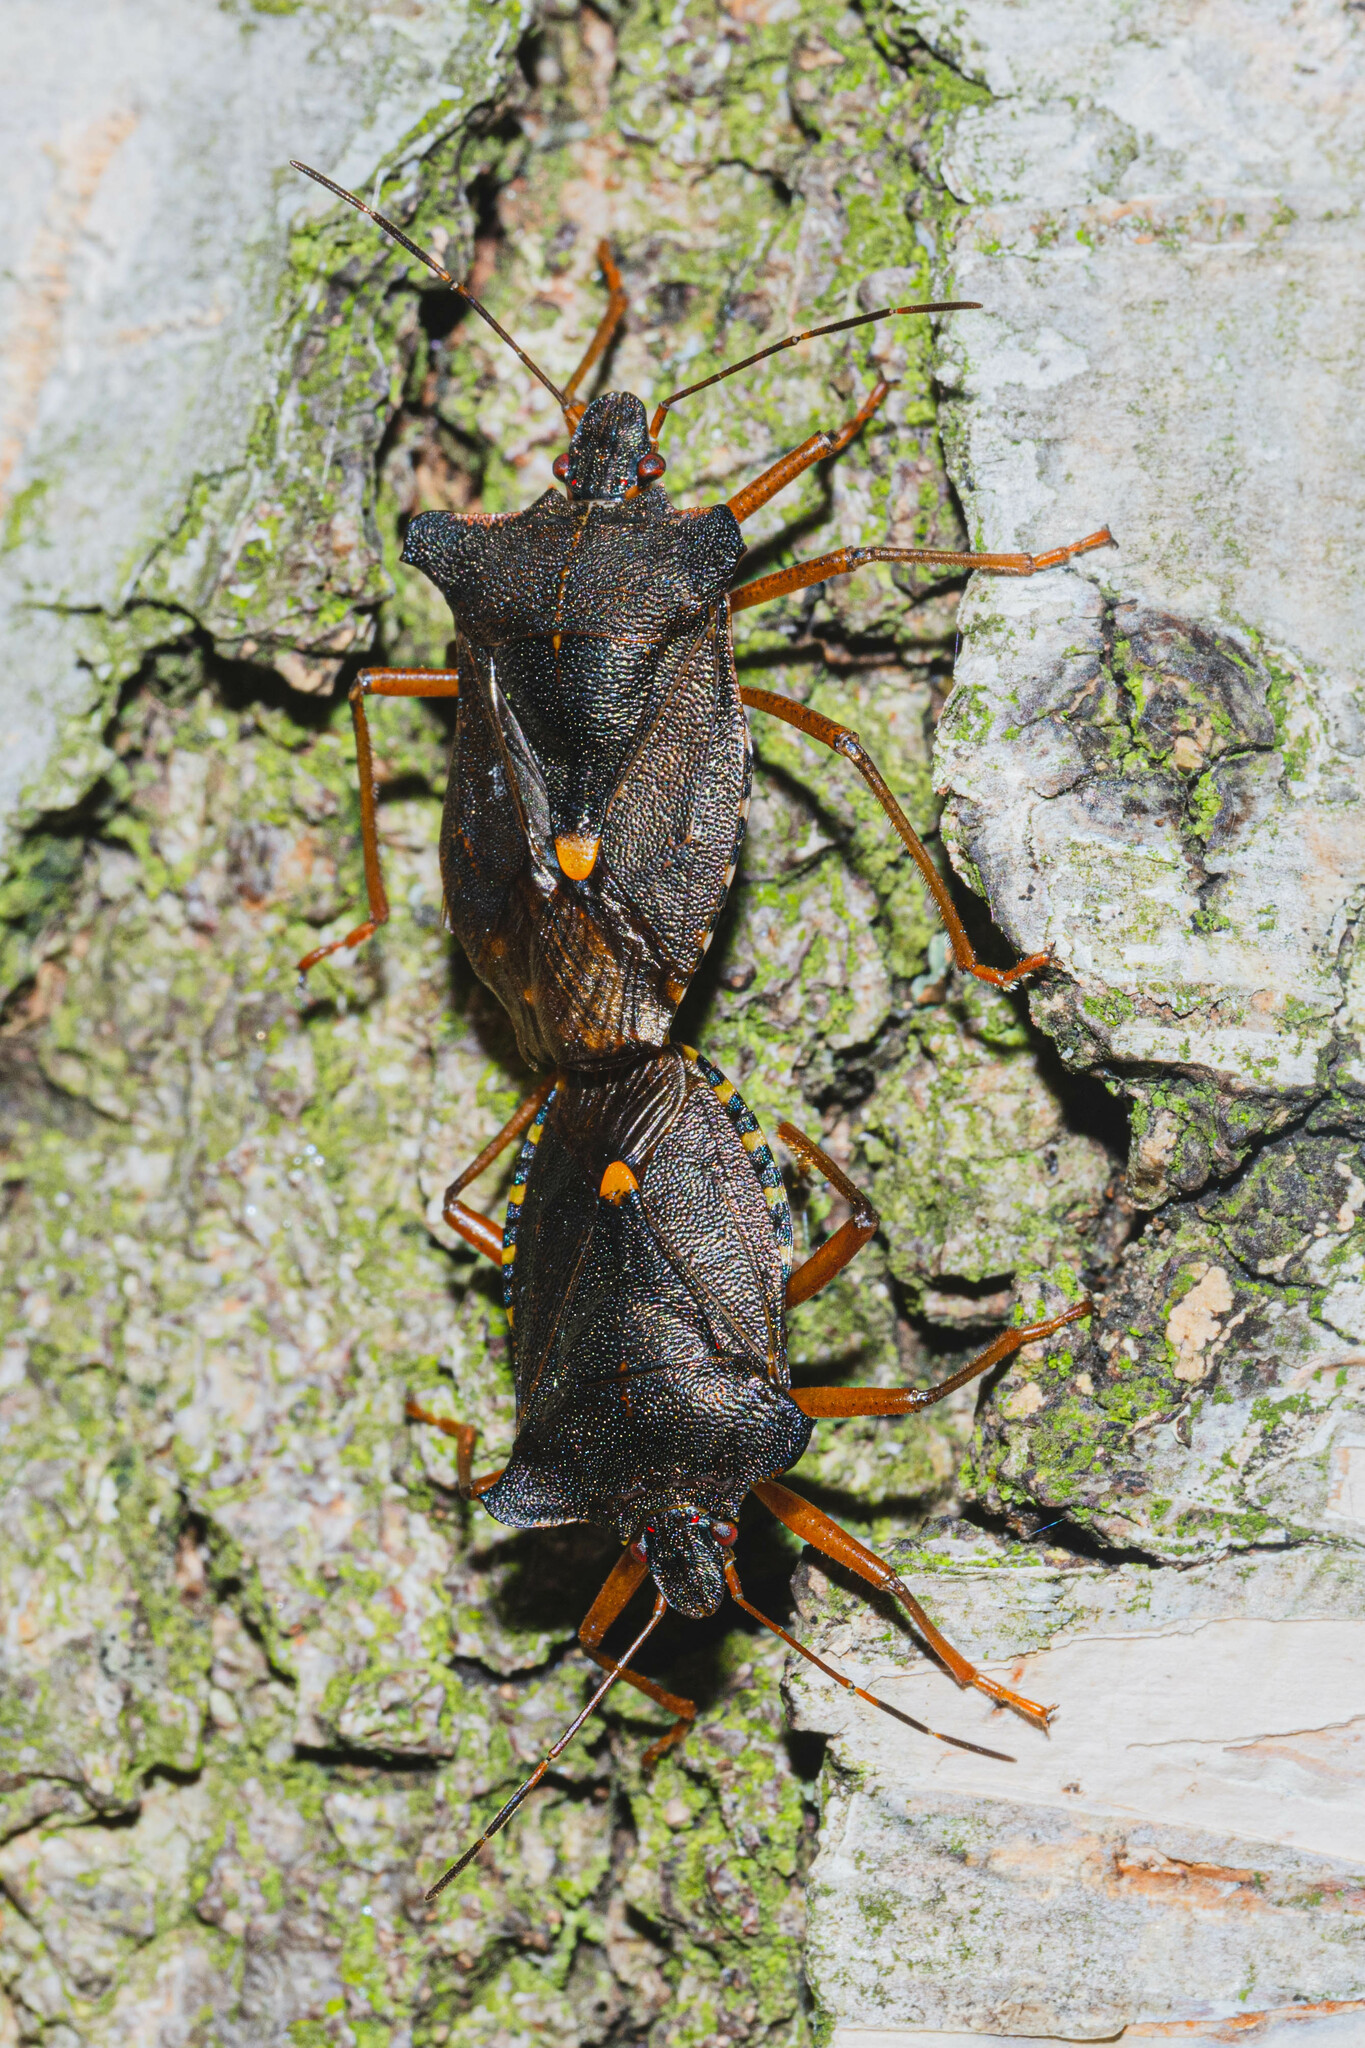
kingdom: Animalia
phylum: Arthropoda
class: Insecta
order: Hemiptera
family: Pentatomidae
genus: Pentatoma
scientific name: Pentatoma rufipes
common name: Forest bug
